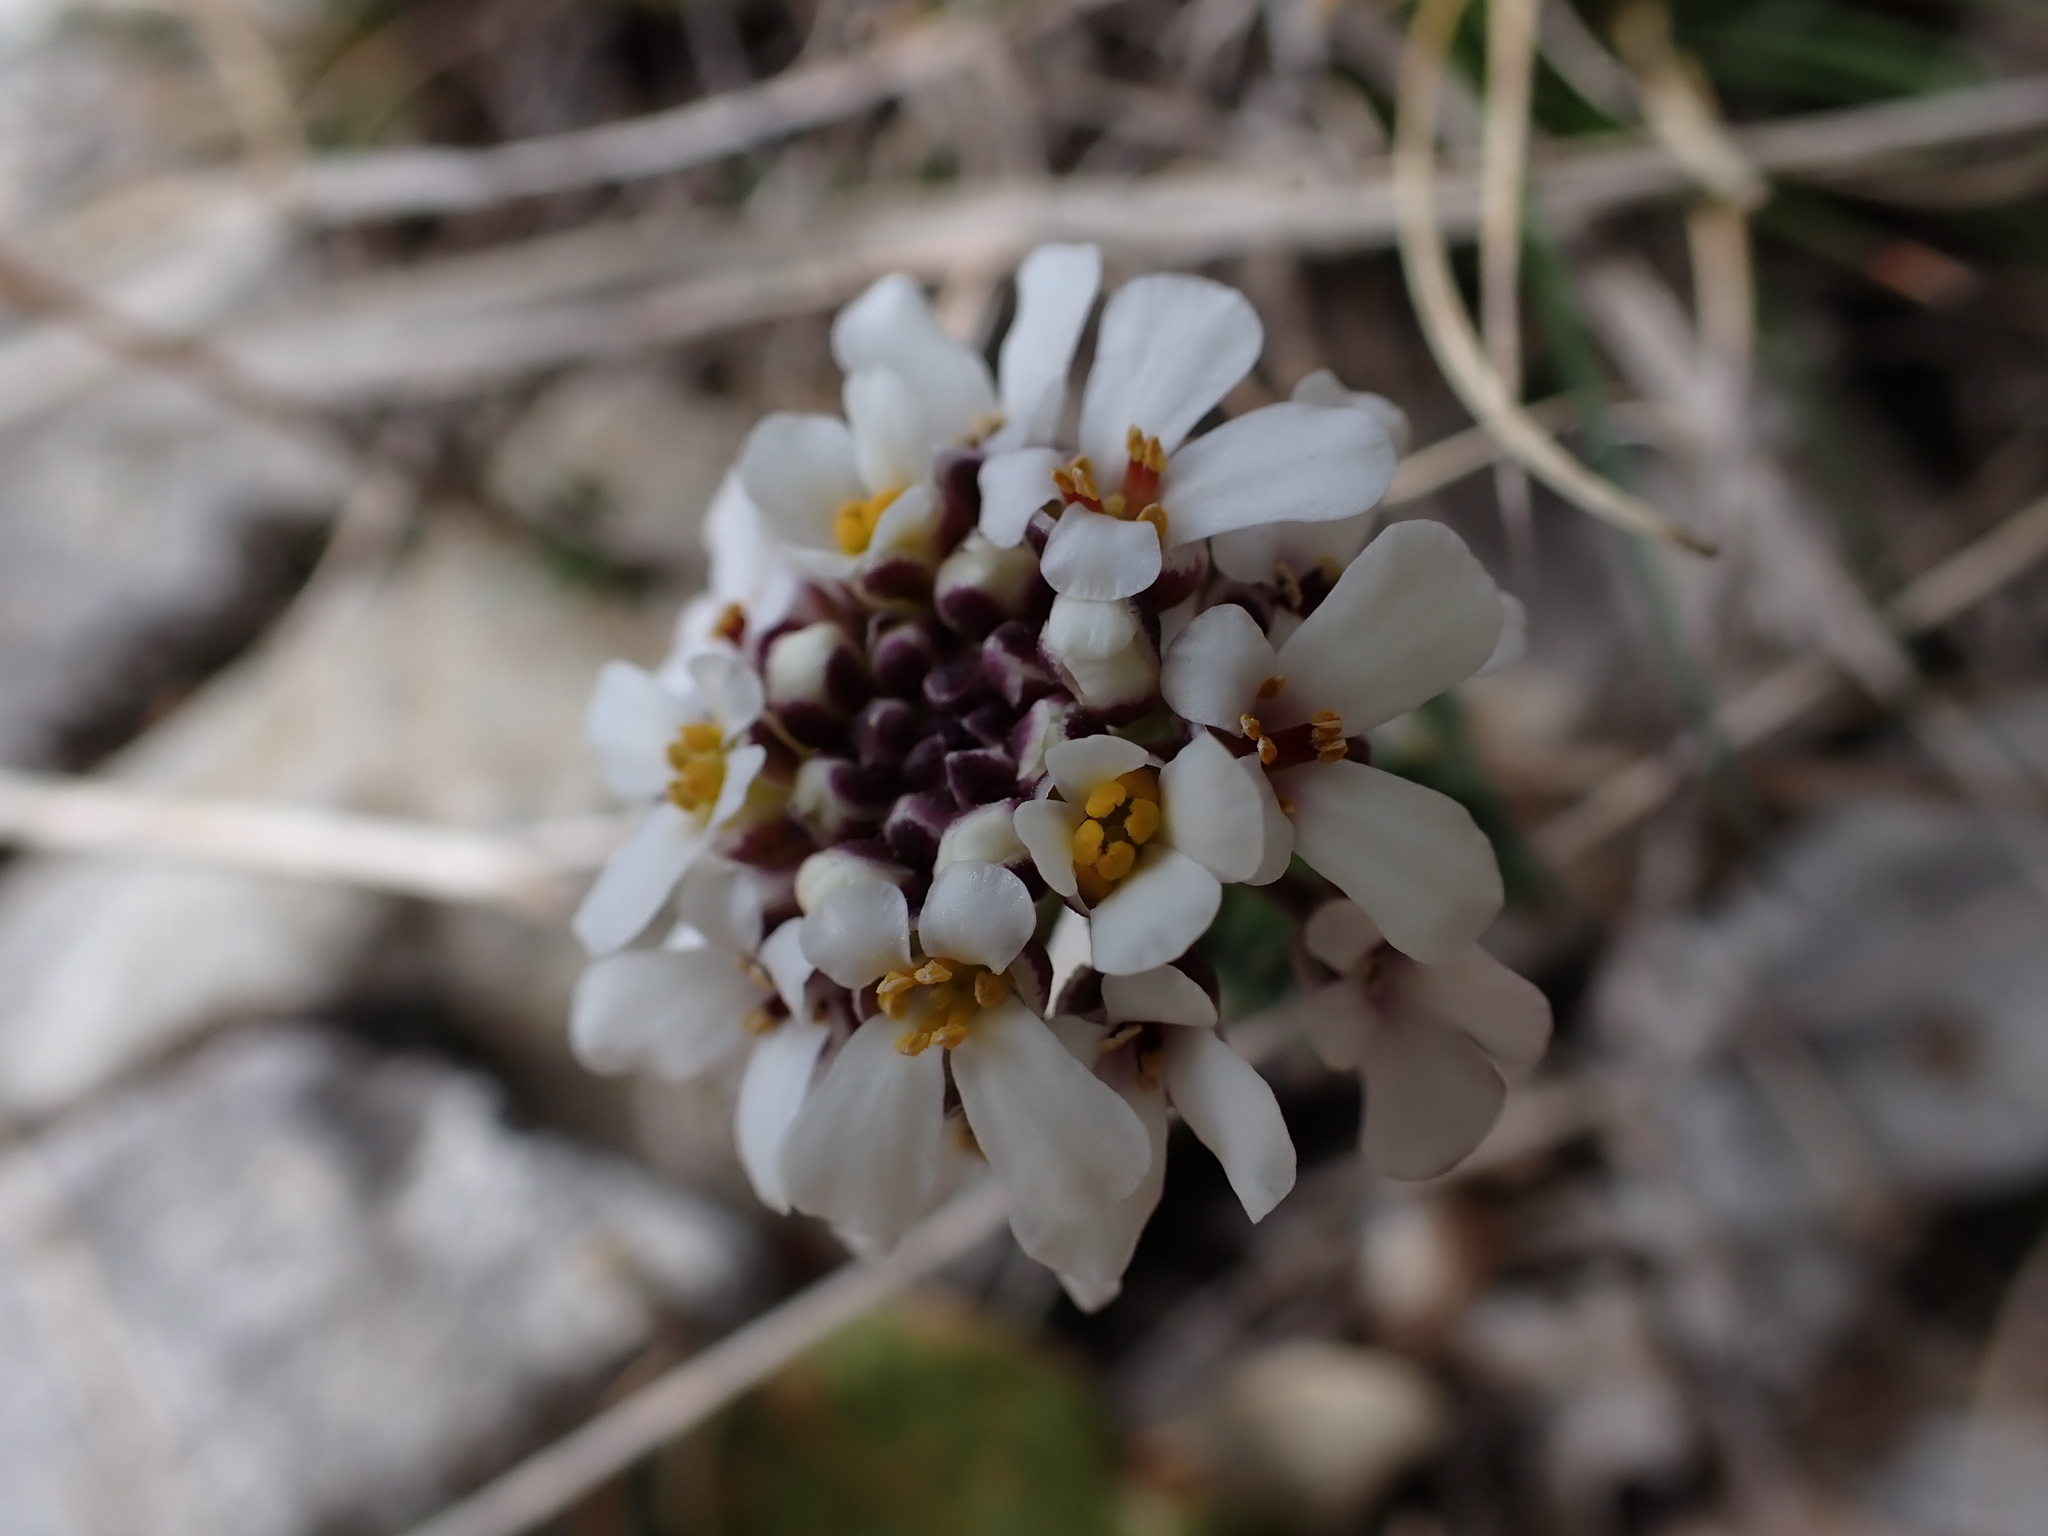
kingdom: Plantae
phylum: Tracheophyta
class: Magnoliopsida
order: Brassicales
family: Brassicaceae
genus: Iberis
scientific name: Iberis saxatilis
